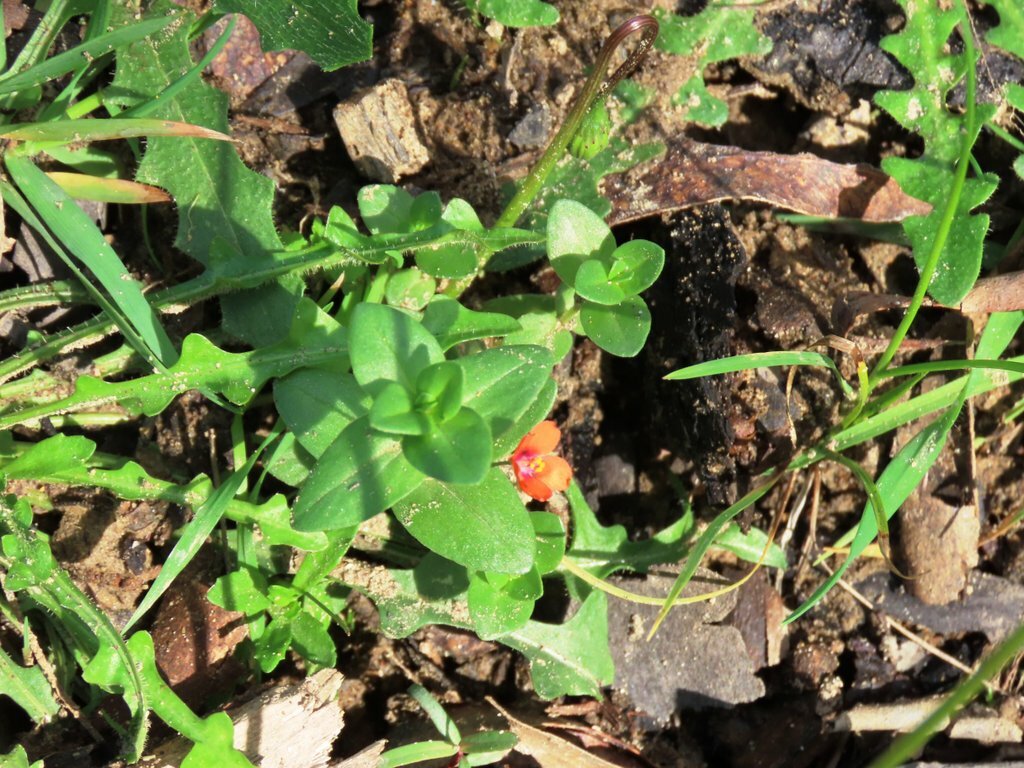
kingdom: Plantae
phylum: Tracheophyta
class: Magnoliopsida
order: Ericales
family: Primulaceae
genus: Lysimachia
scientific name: Lysimachia arvensis
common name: Scarlet pimpernel
